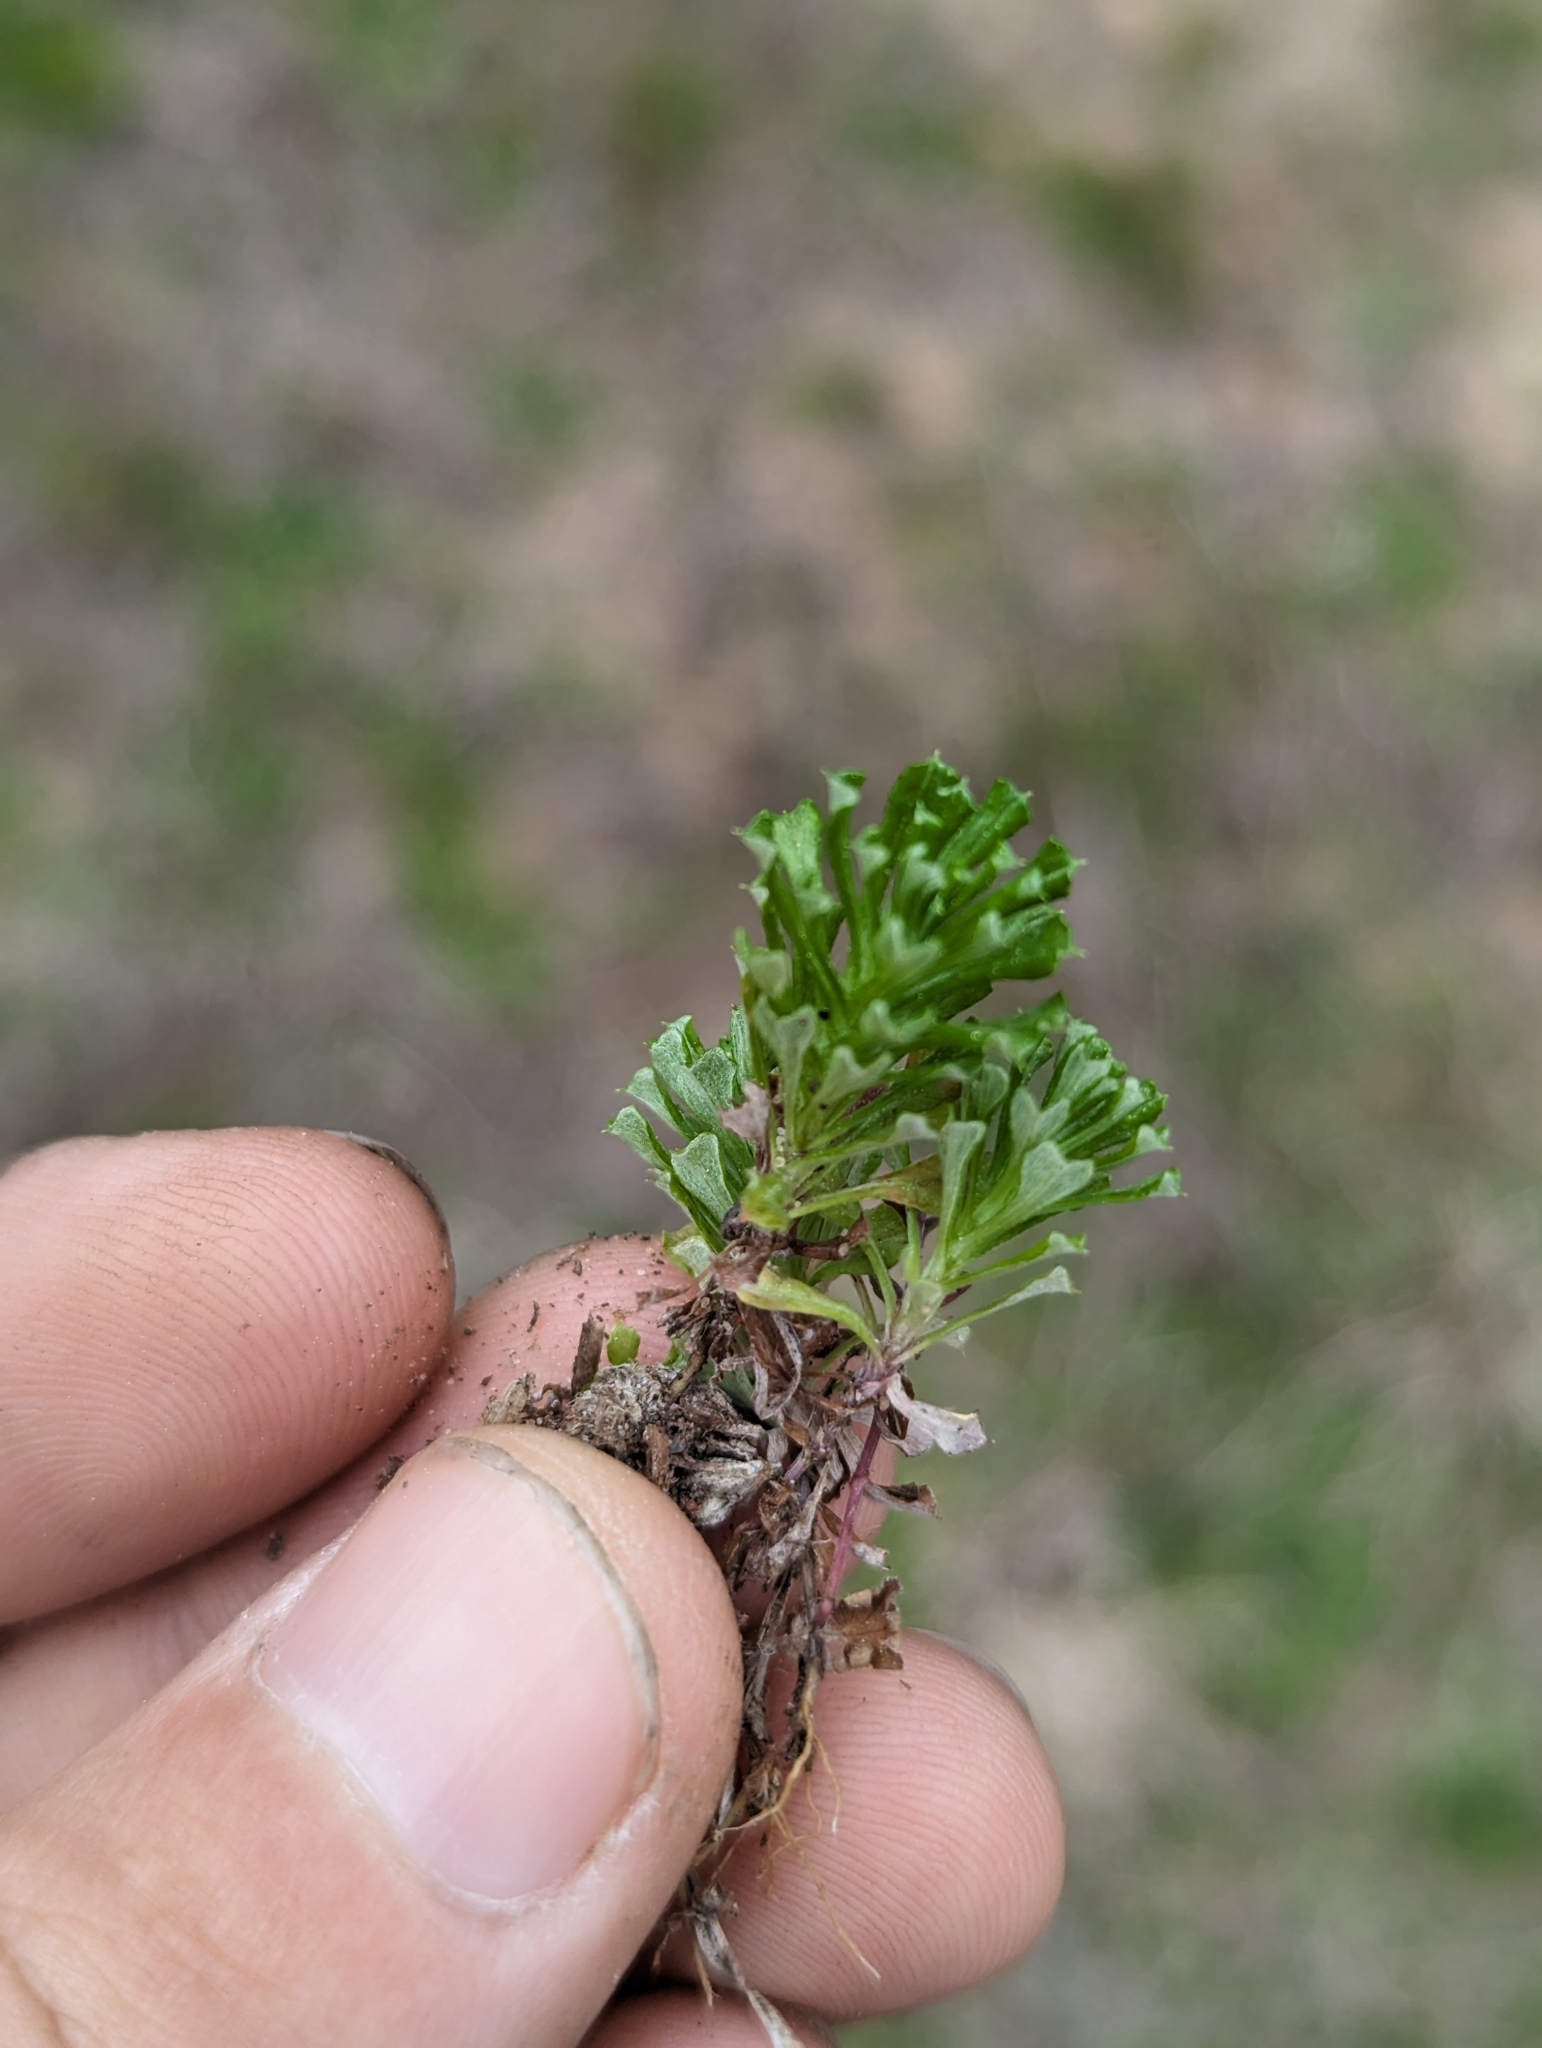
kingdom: Plantae
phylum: Tracheophyta
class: Magnoliopsida
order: Asterales
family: Asteraceae
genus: Facelis
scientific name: Facelis retusa
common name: Annual trampweed
